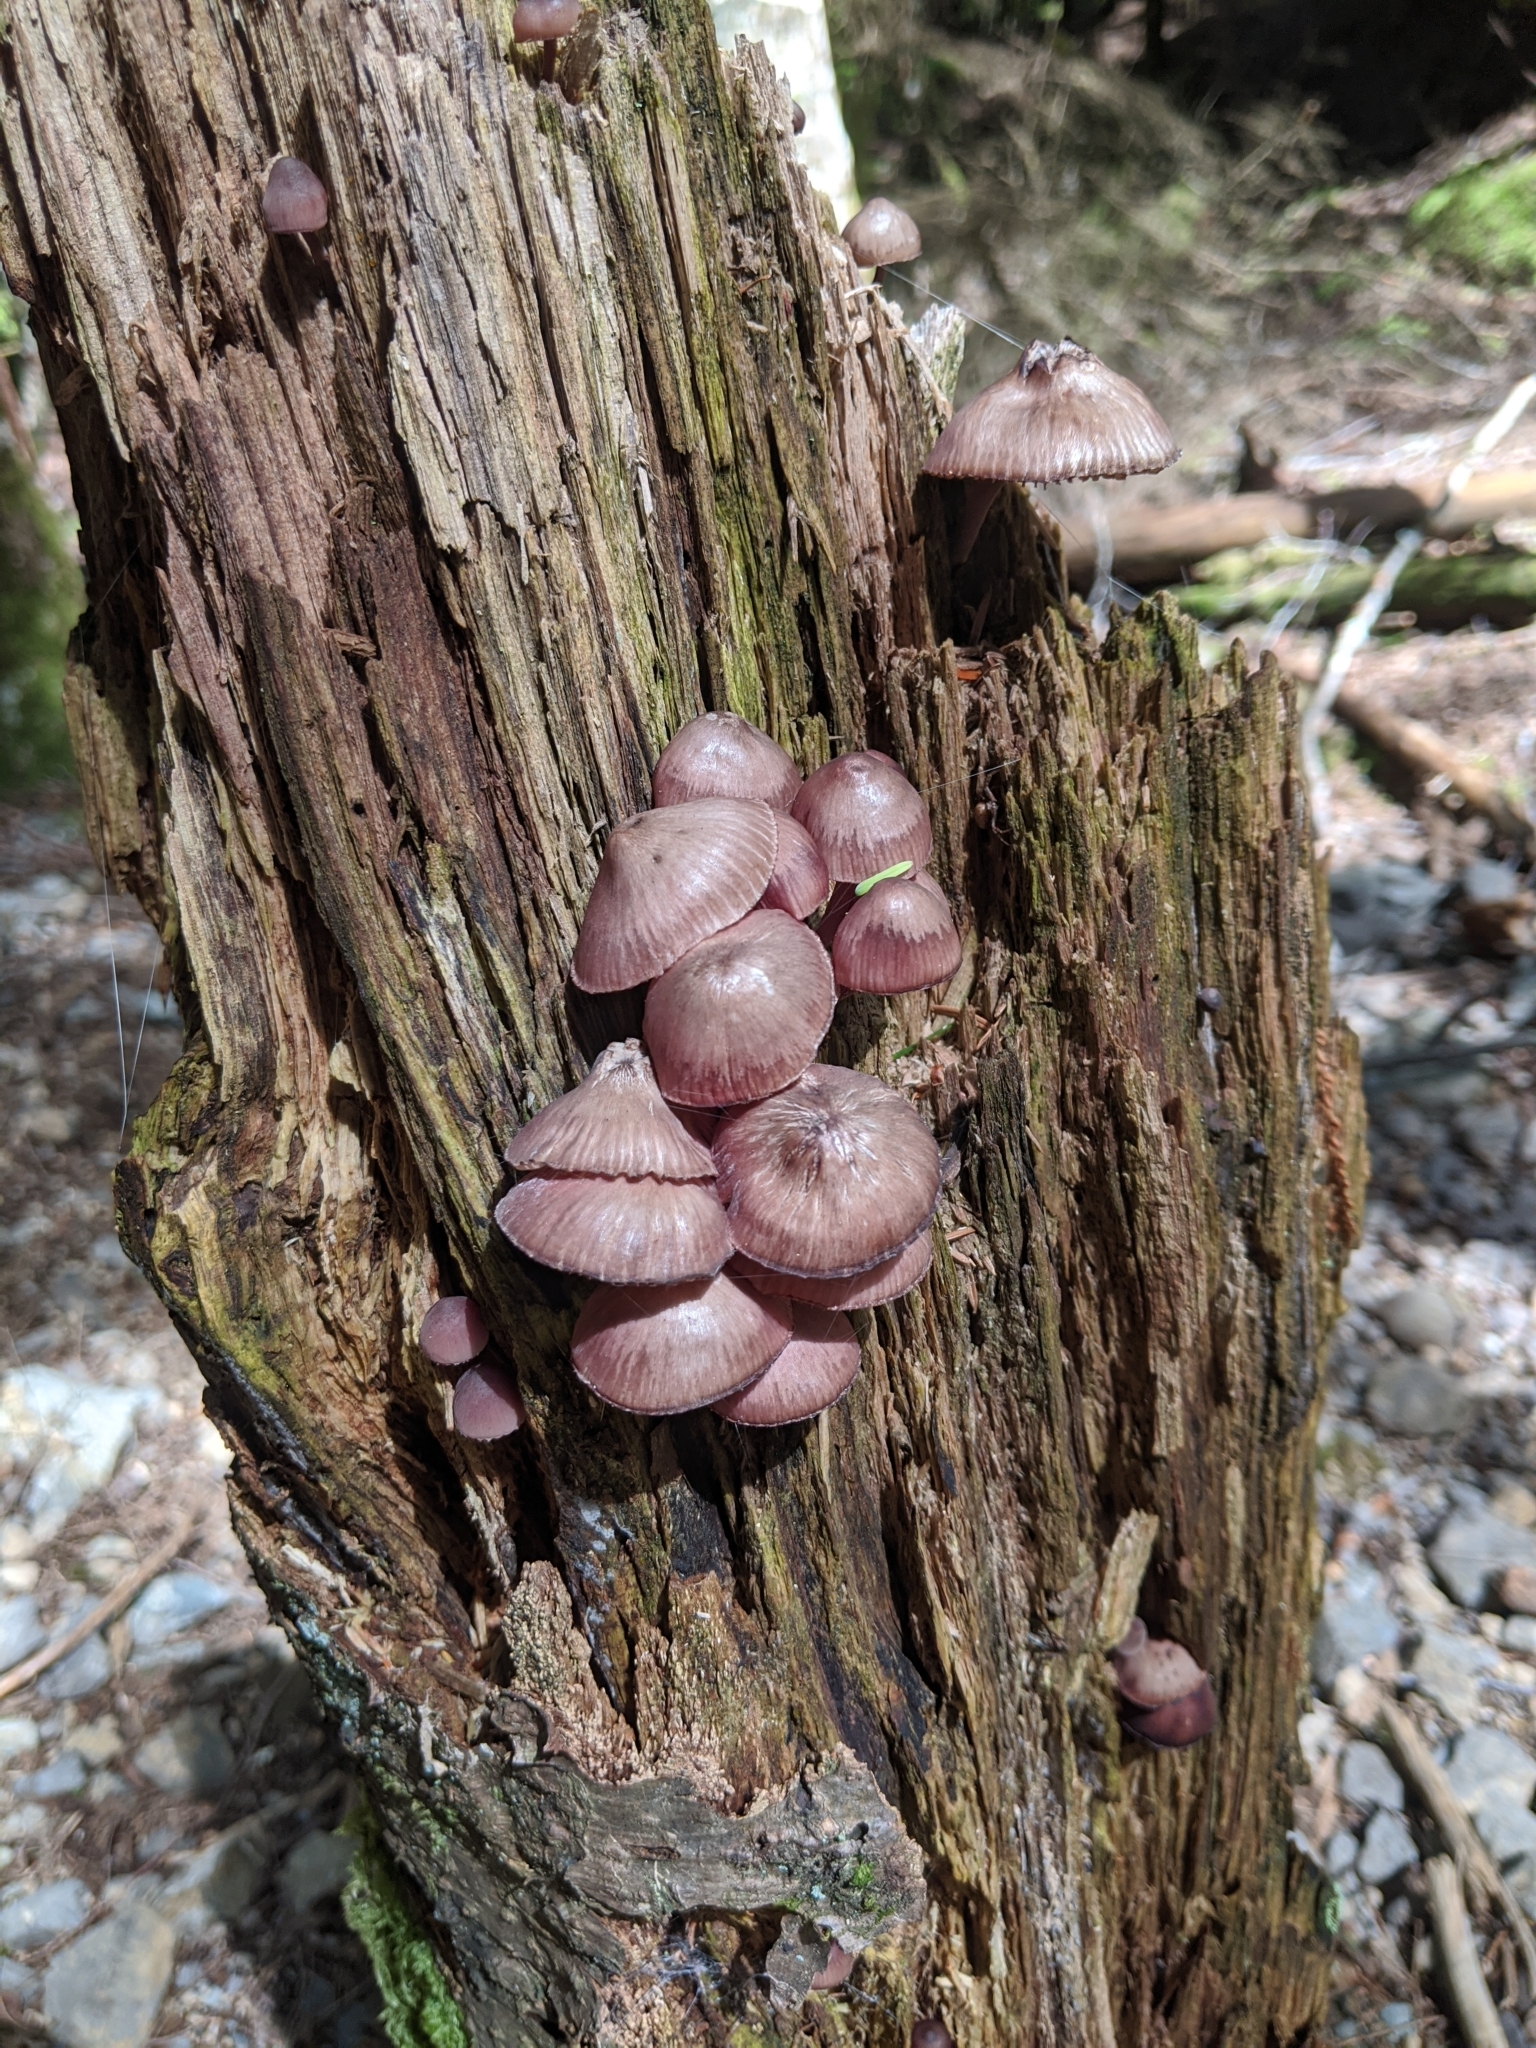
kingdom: Fungi
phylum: Basidiomycota
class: Agaricomycetes
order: Agaricales
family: Mycenaceae
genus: Mycena
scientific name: Mycena haematopus
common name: Burgundydrop bonnet
